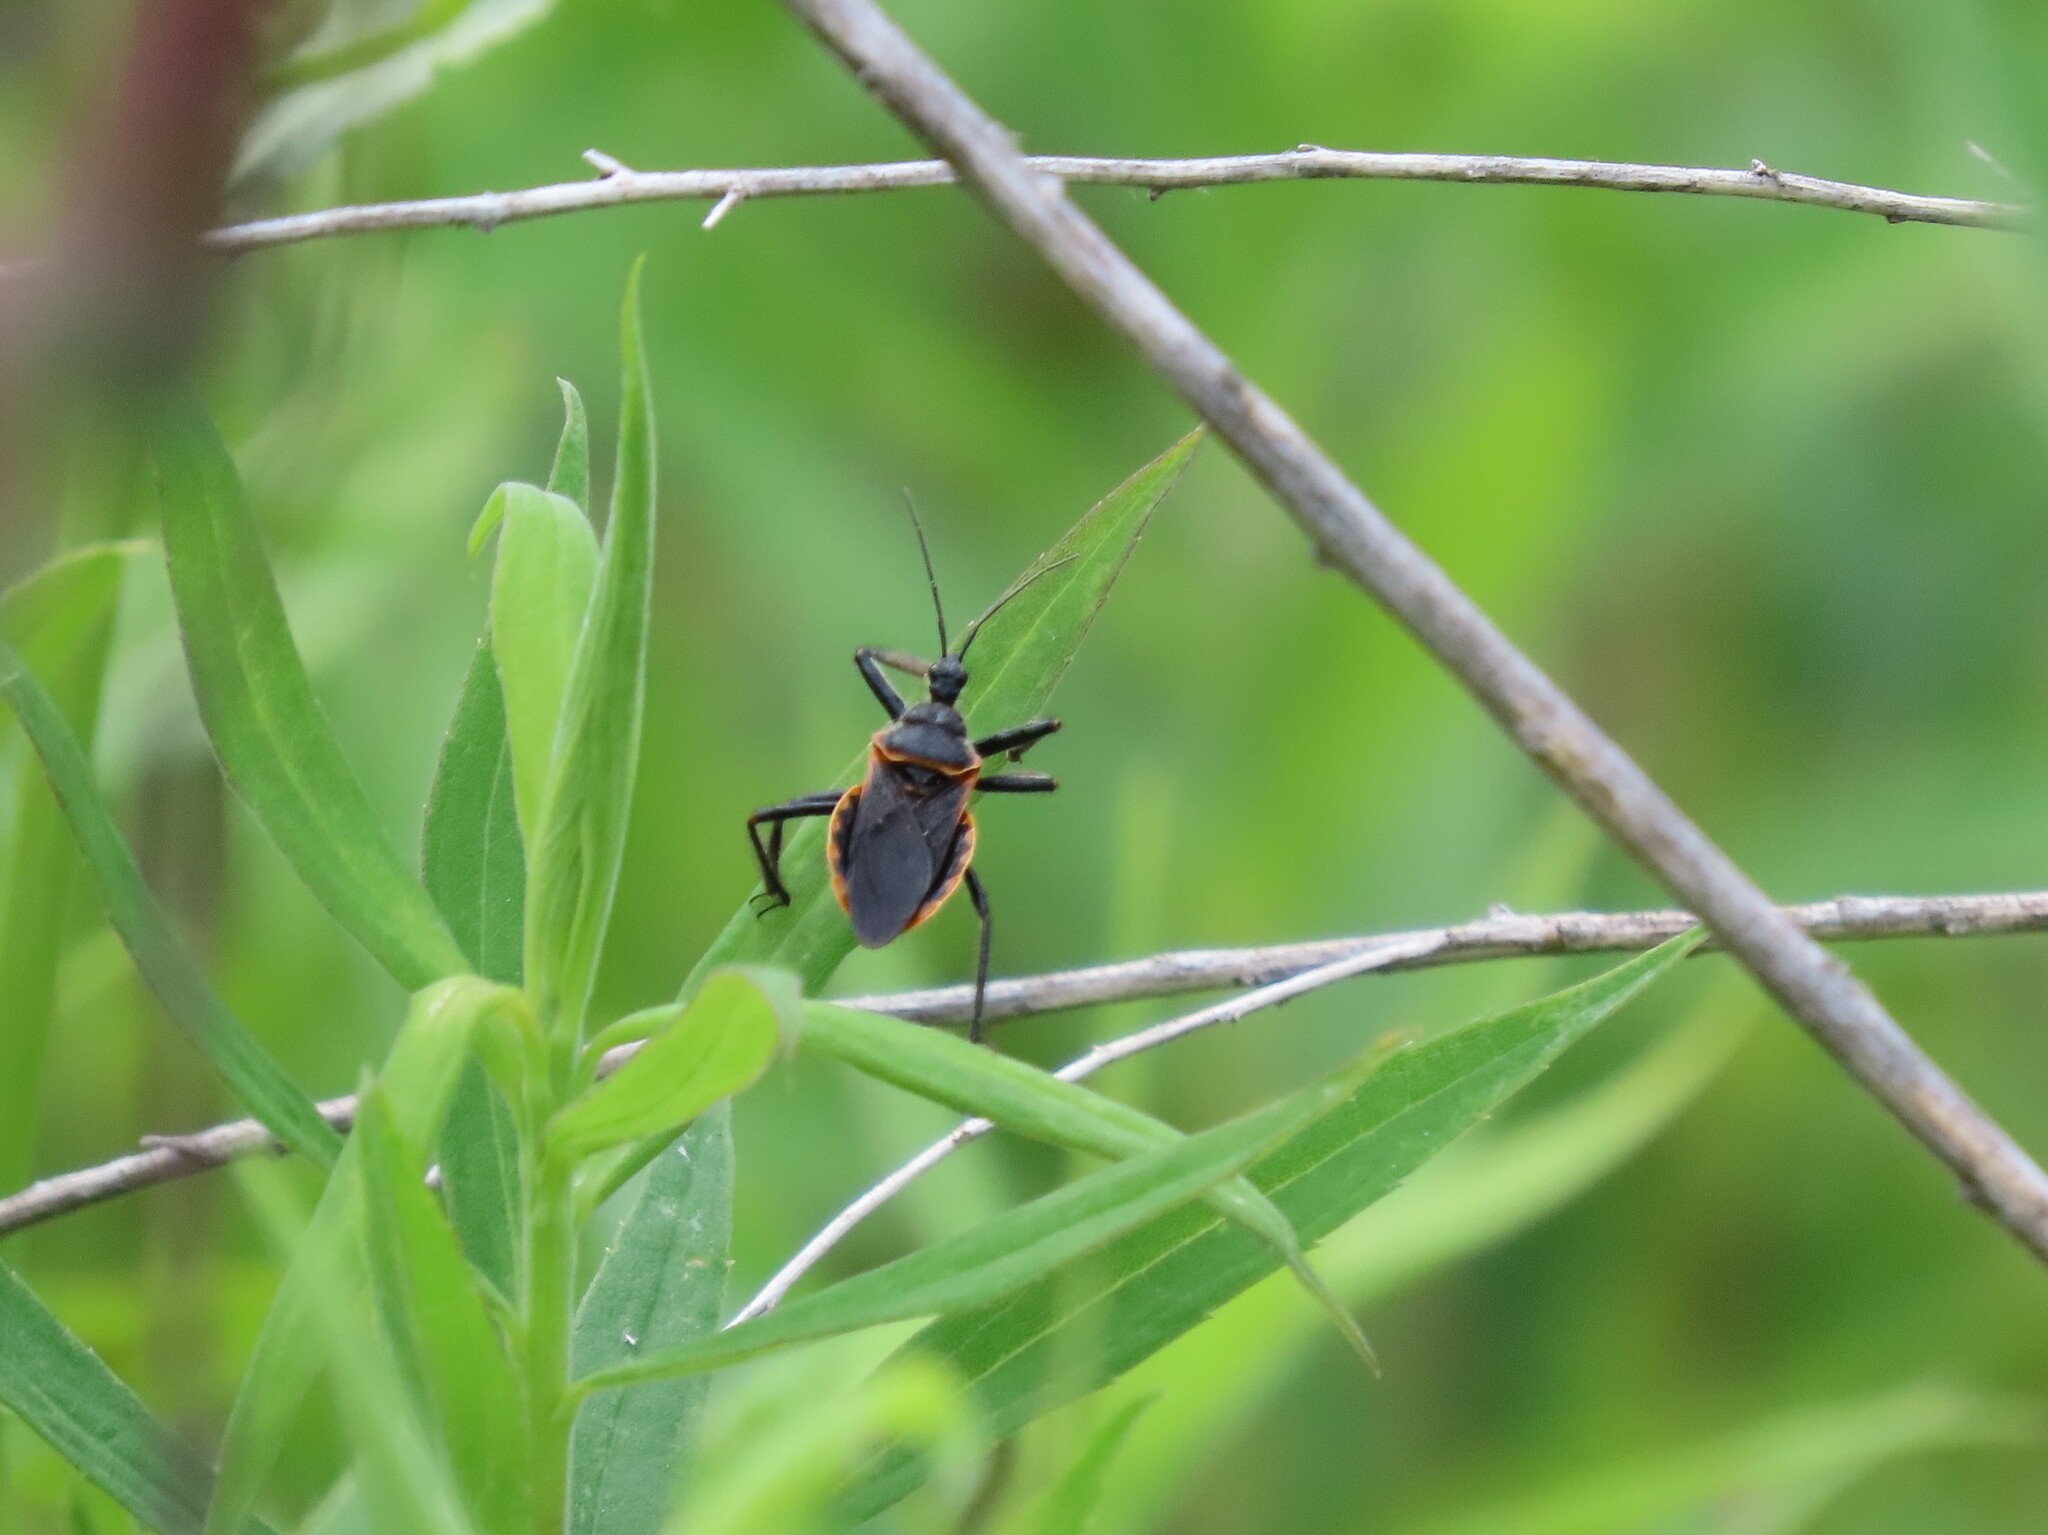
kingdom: Animalia
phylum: Arthropoda
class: Insecta
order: Hemiptera
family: Reduviidae
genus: Apiomerus
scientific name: Apiomerus crassipes
